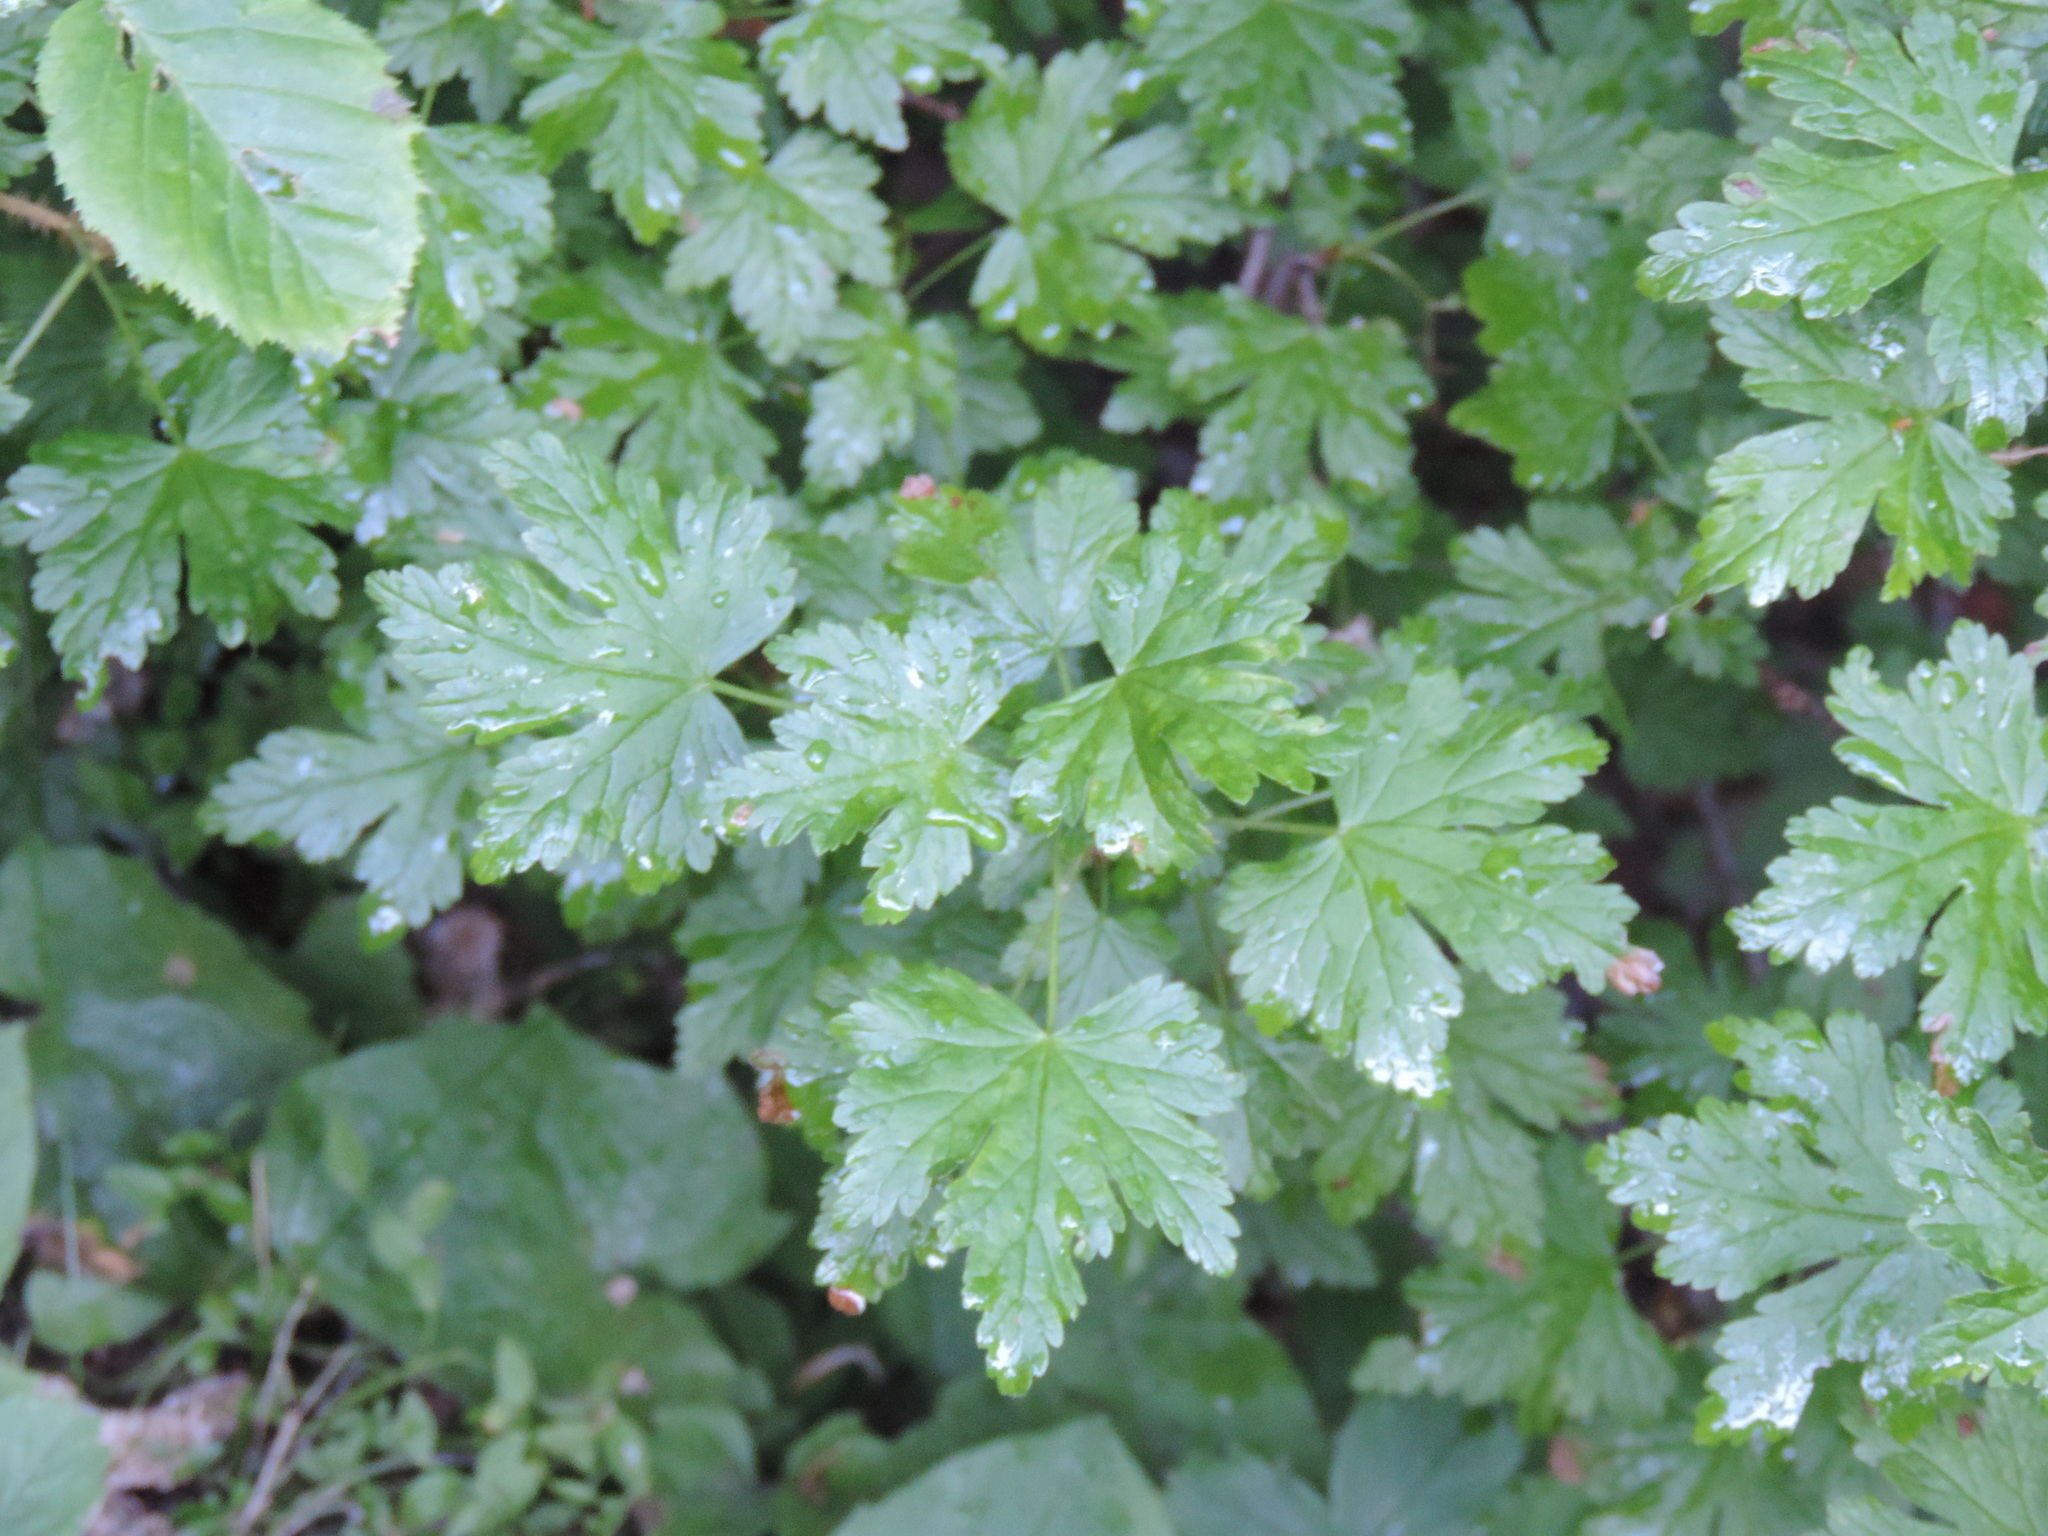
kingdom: Plantae
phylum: Tracheophyta
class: Magnoliopsida
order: Saxifragales
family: Grossulariaceae
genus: Ribes
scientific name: Ribes lacustre
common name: Black gooseberry
